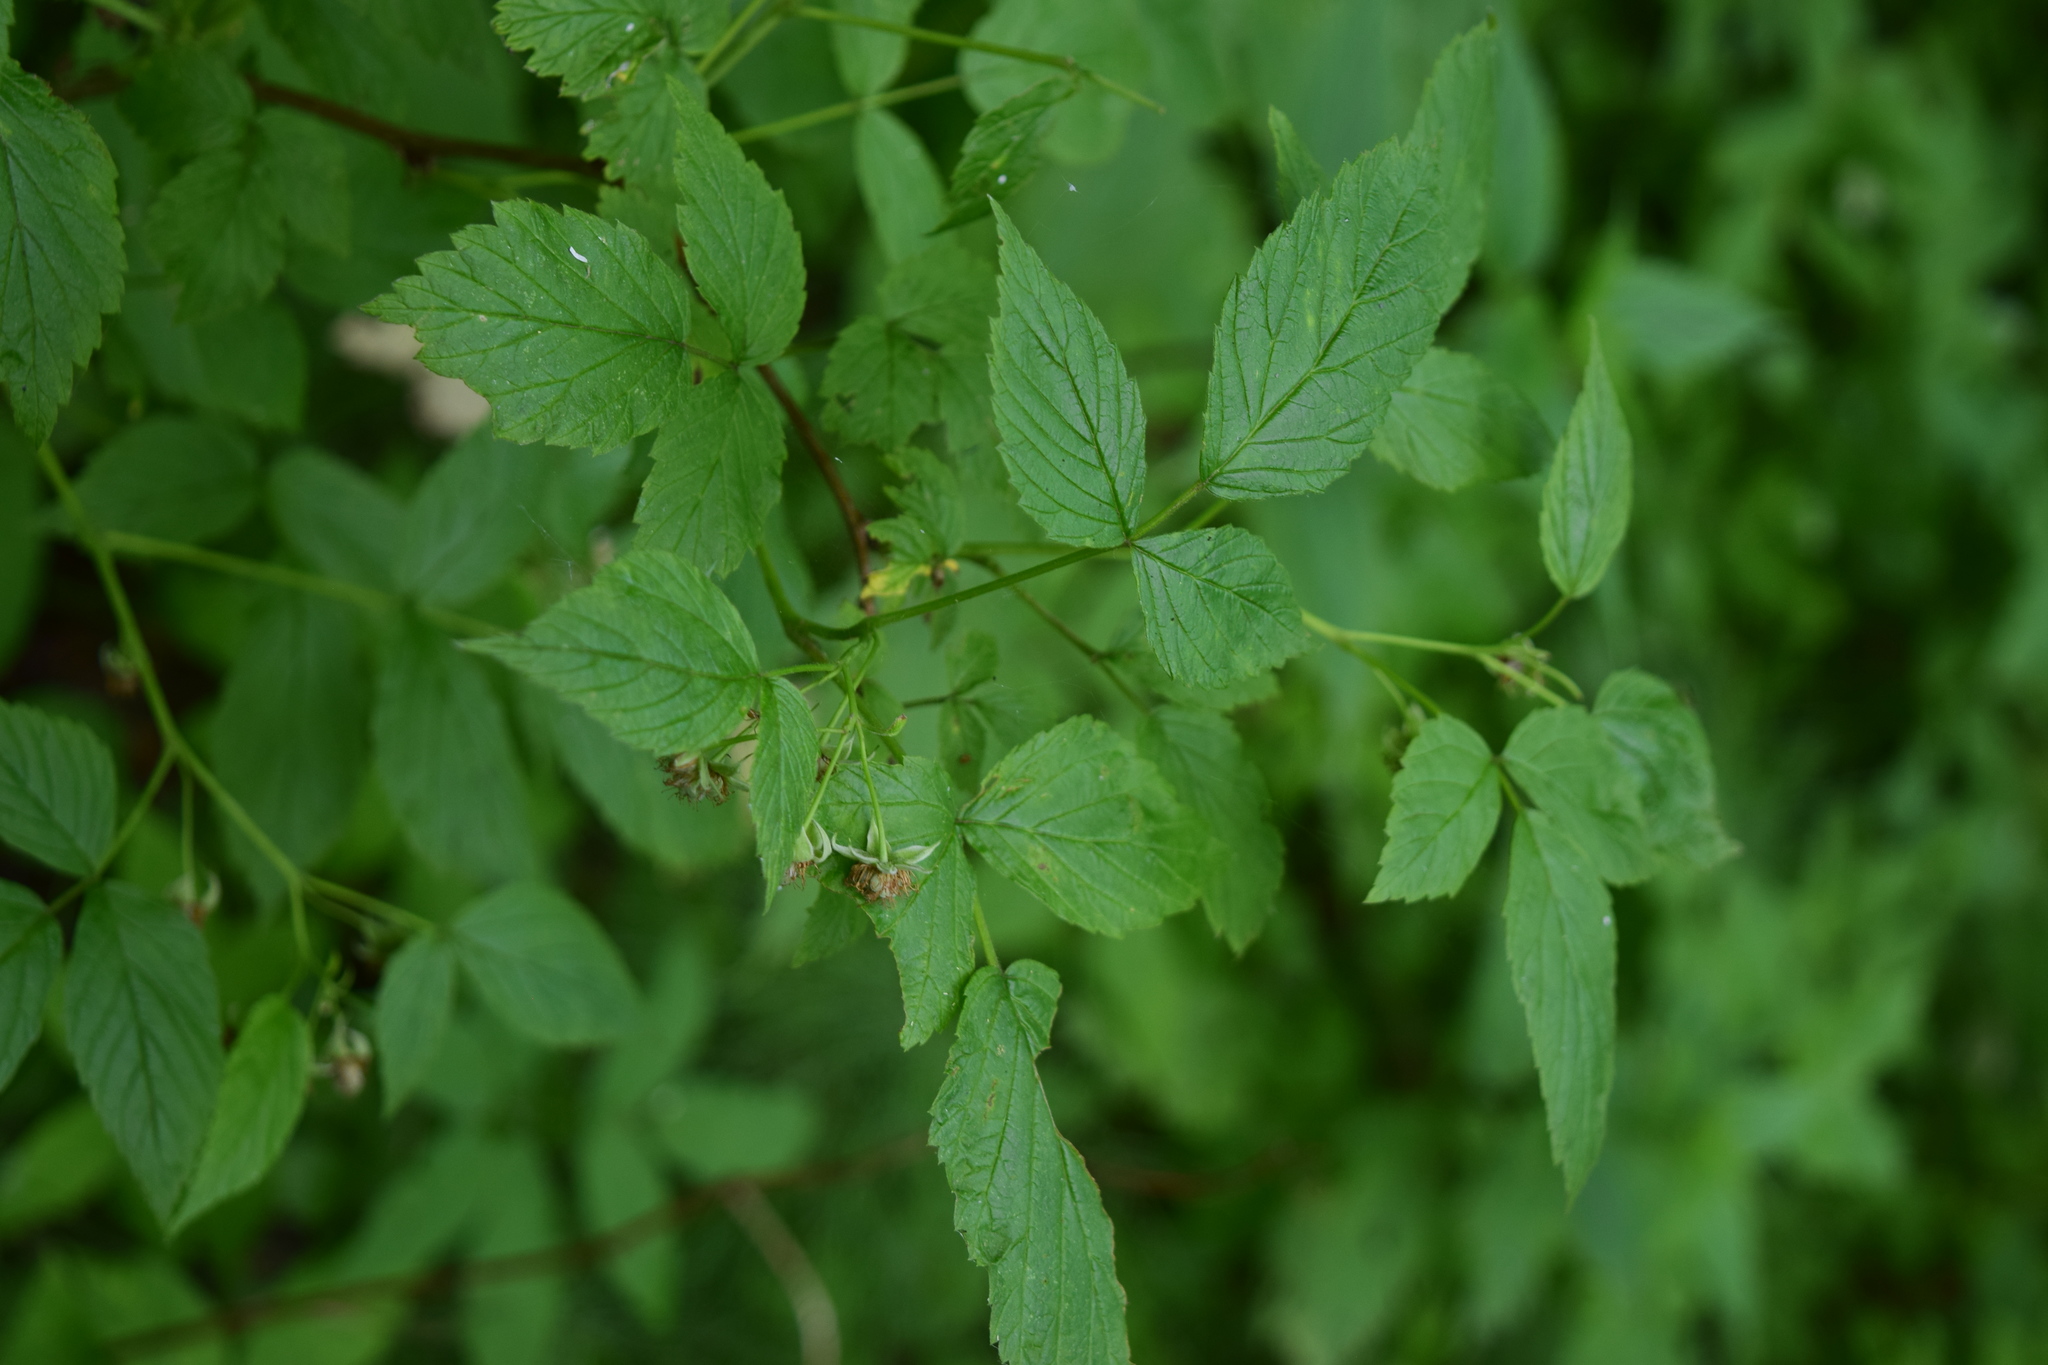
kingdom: Plantae
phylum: Tracheophyta
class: Magnoliopsida
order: Rosales
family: Rosaceae
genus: Rubus
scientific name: Rubus idaeus
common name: Raspberry
